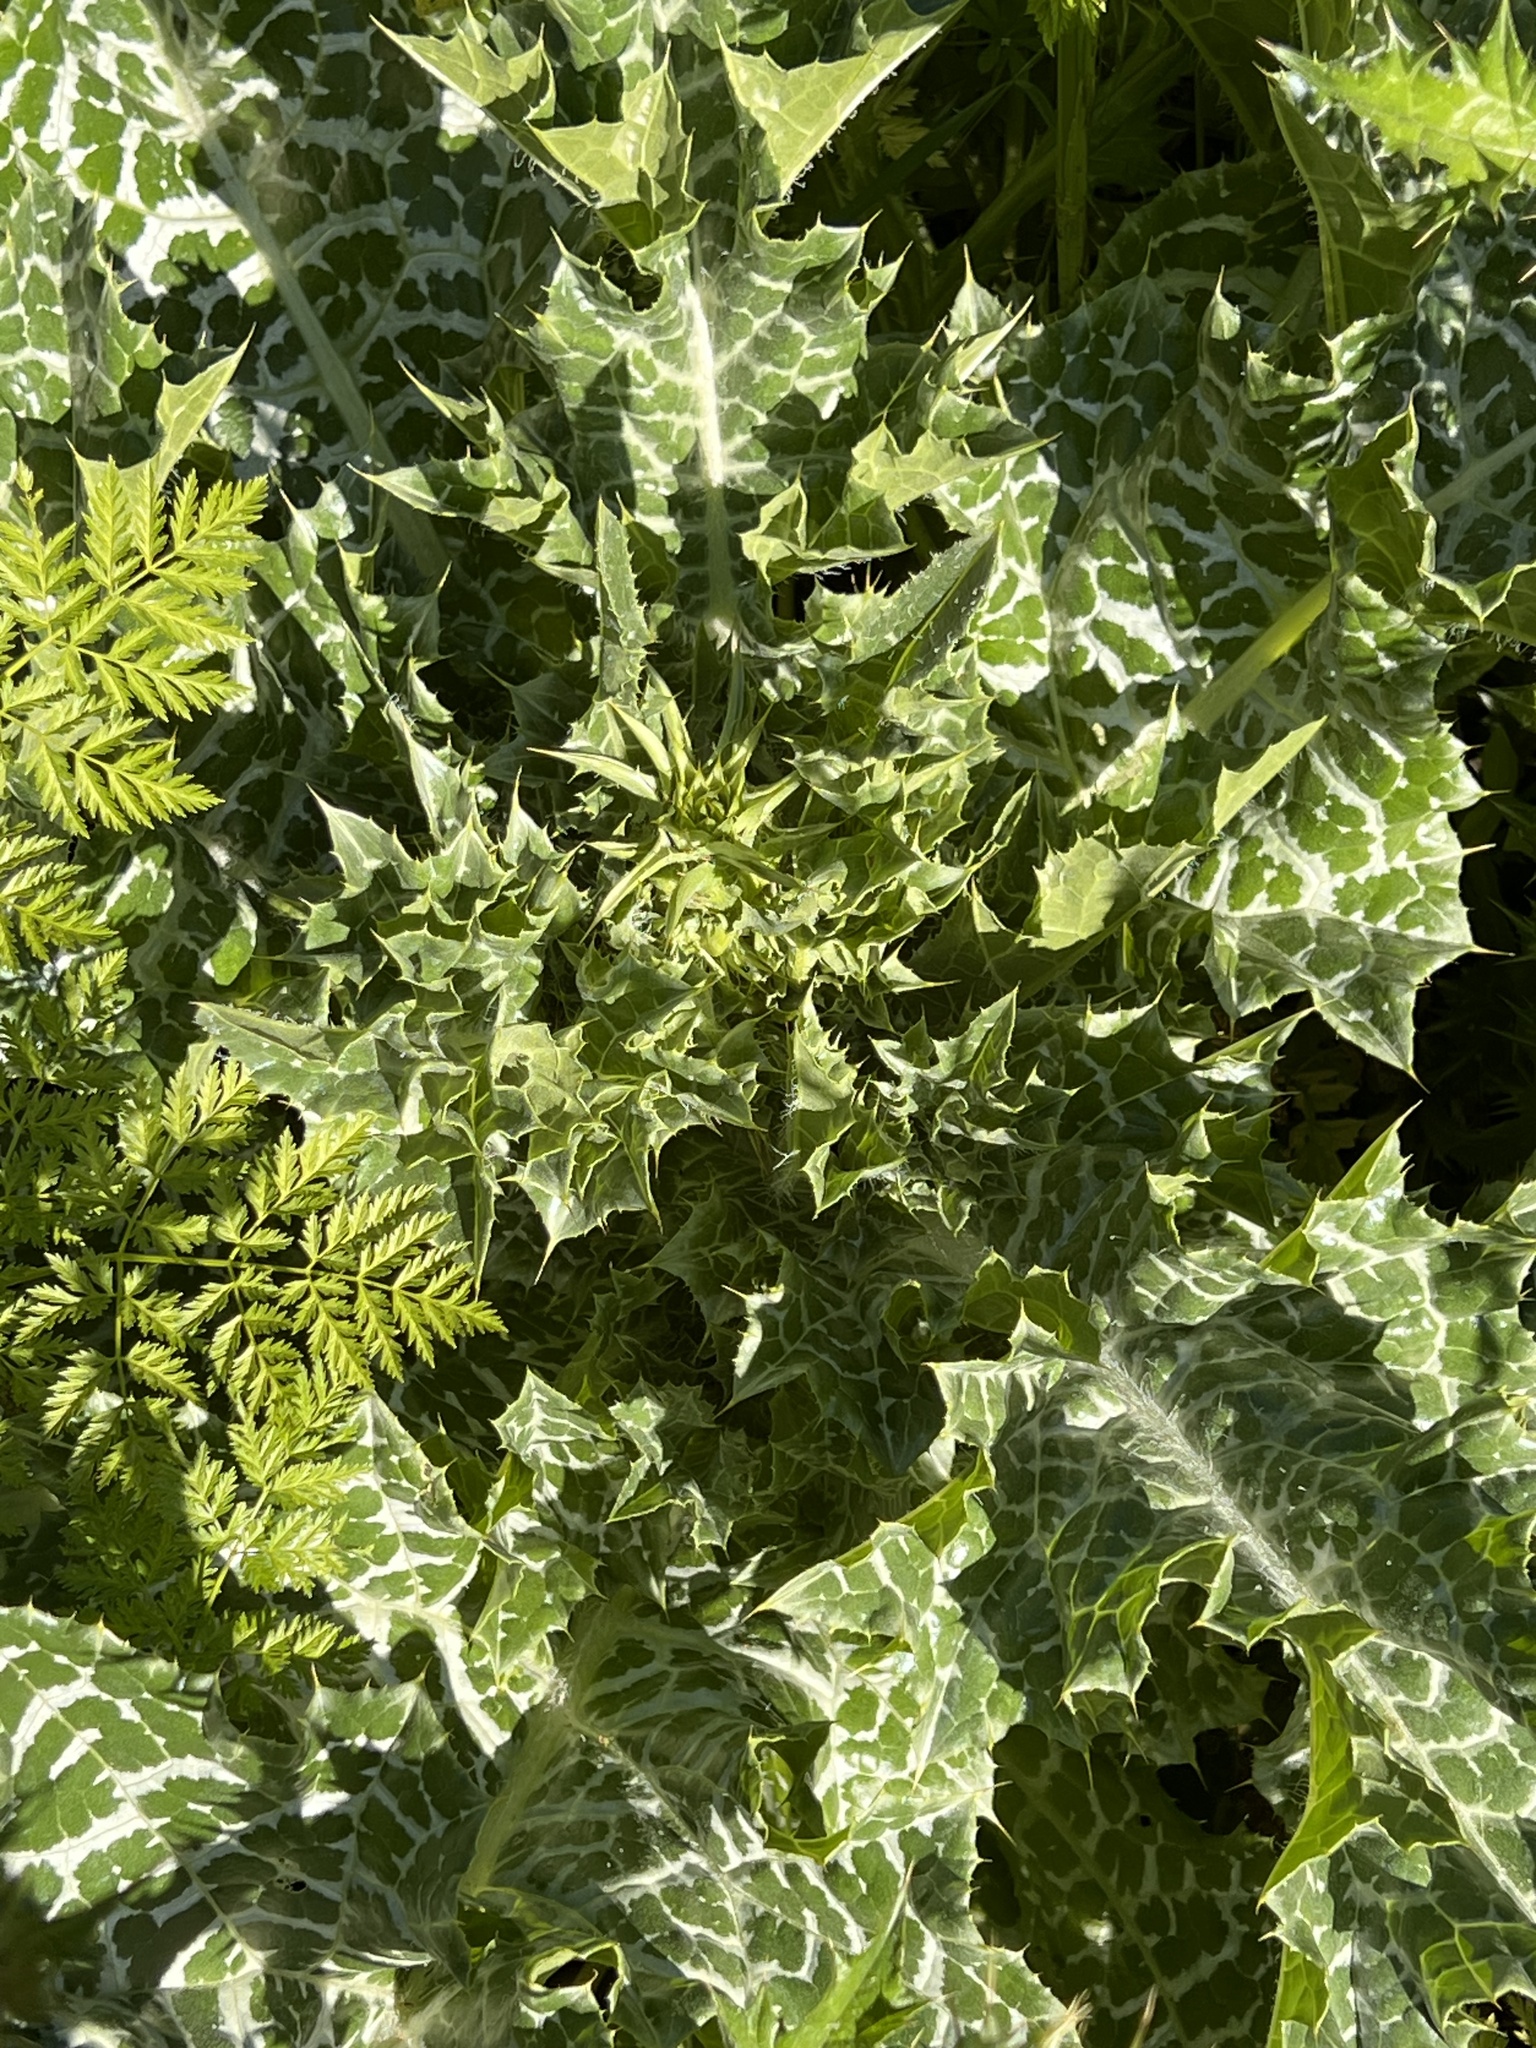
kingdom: Plantae
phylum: Tracheophyta
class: Magnoliopsida
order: Asterales
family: Asteraceae
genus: Silybum
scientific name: Silybum marianum
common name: Milk thistle
